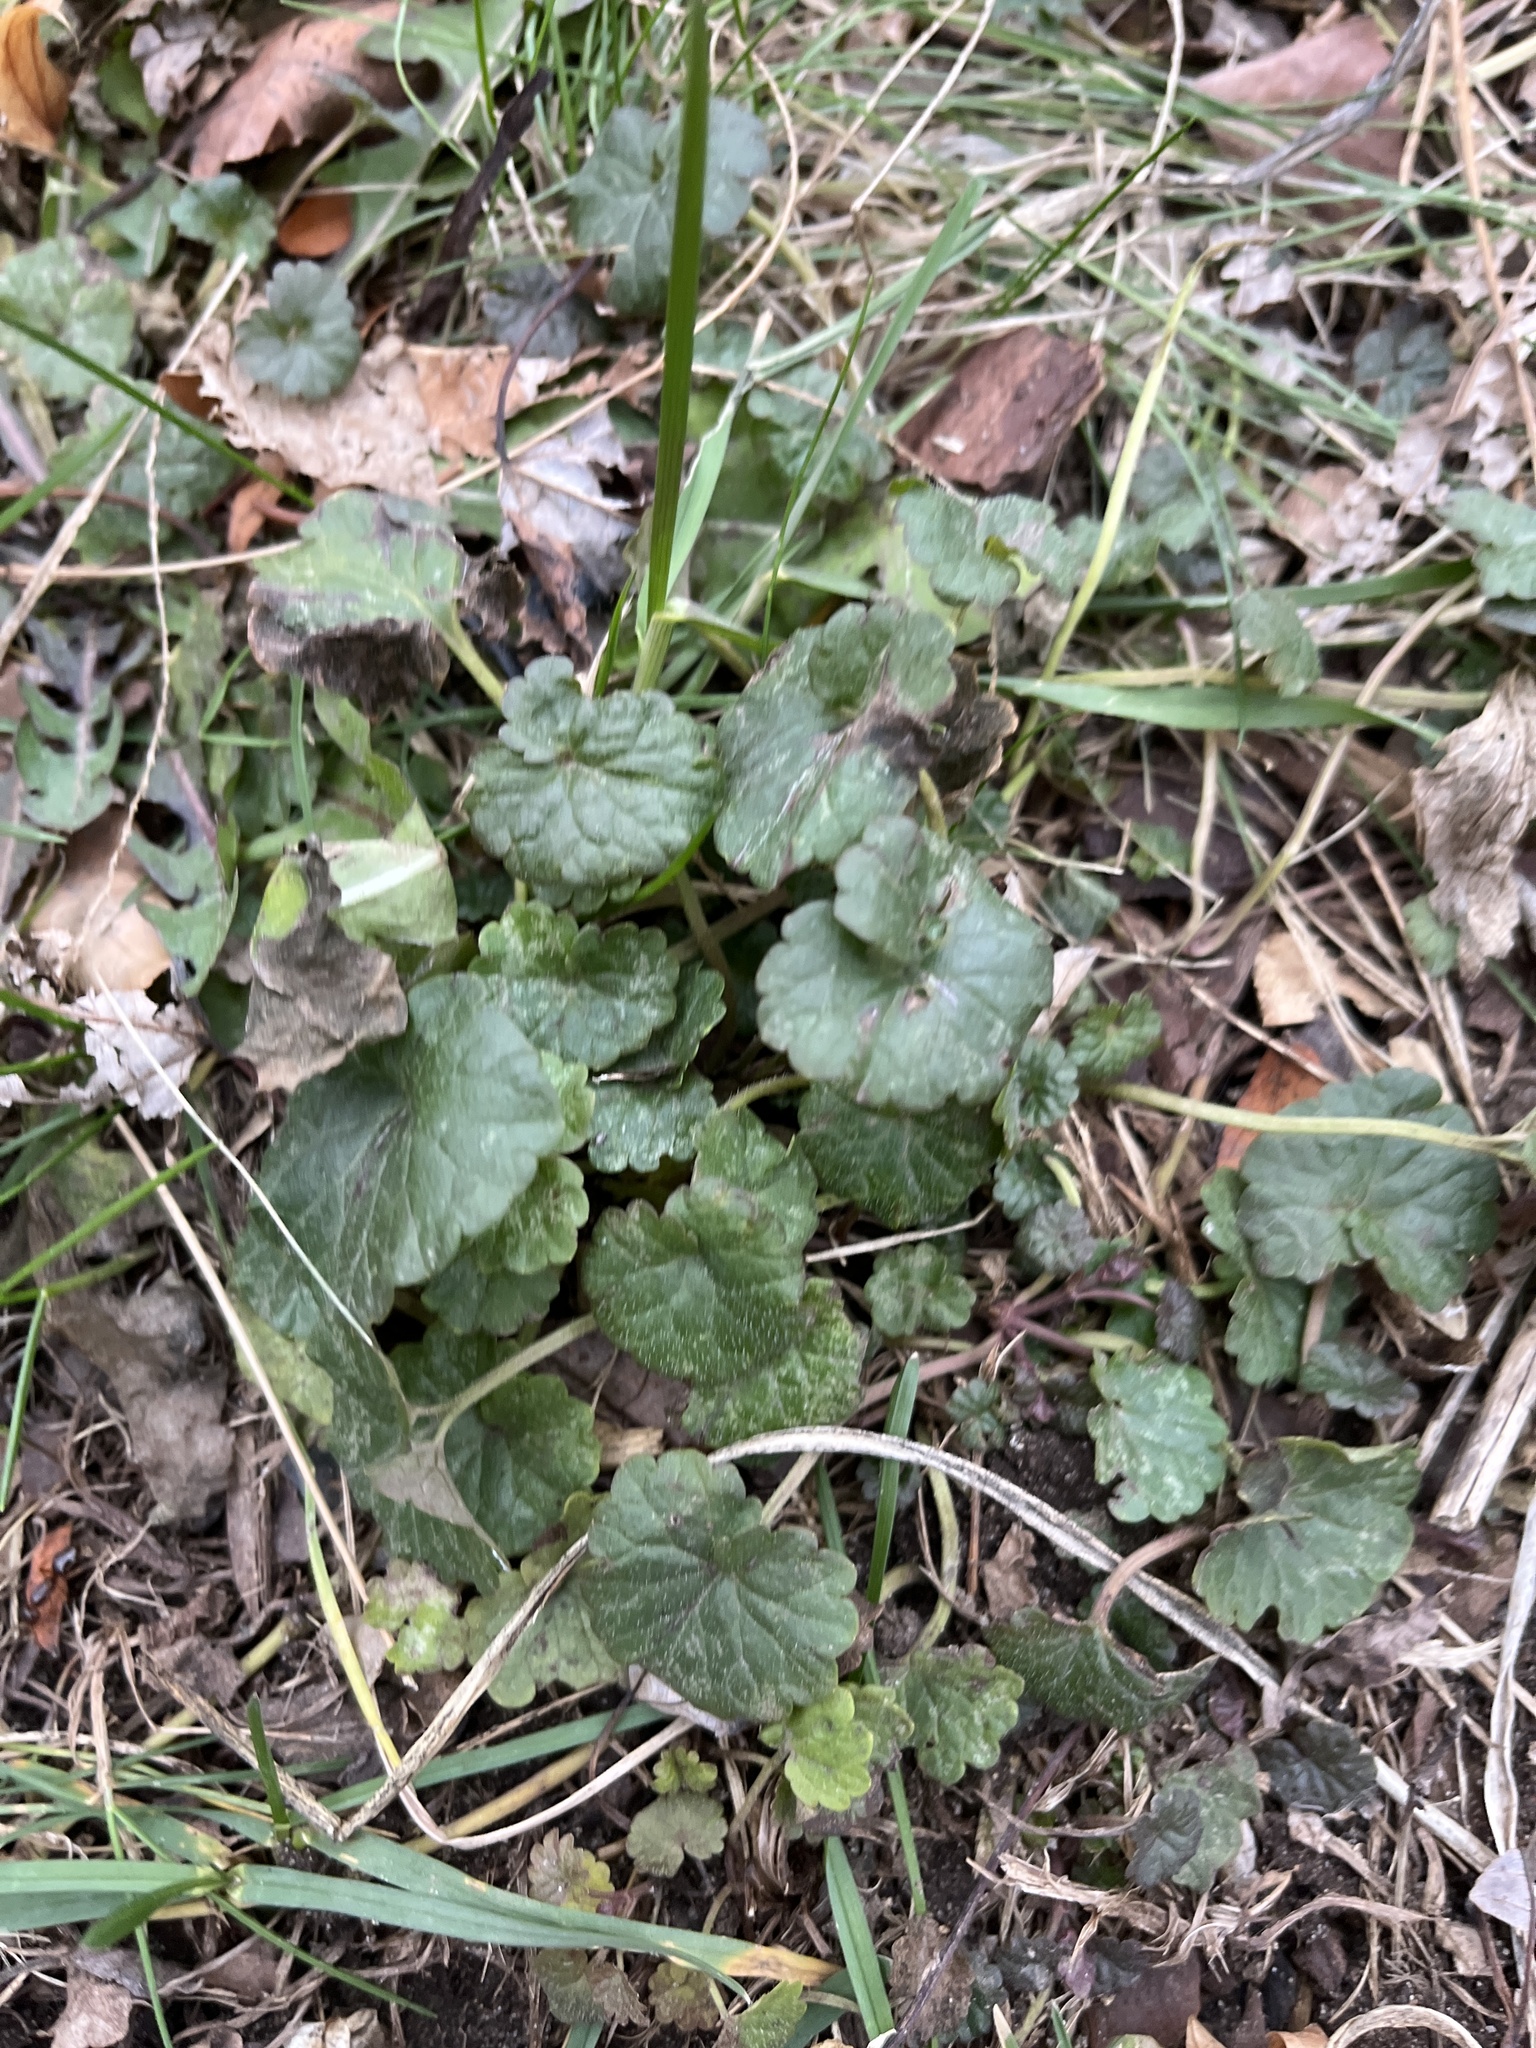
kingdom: Plantae
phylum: Tracheophyta
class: Magnoliopsida
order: Lamiales
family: Lamiaceae
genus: Glechoma
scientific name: Glechoma hederacea
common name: Ground ivy
